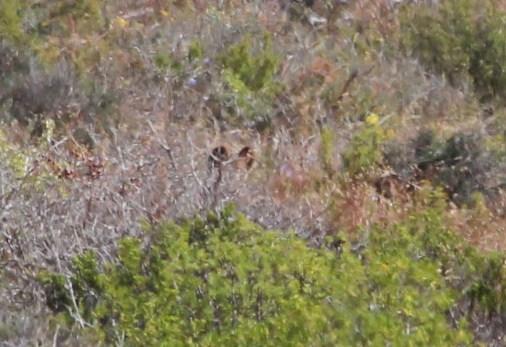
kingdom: Animalia
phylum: Chordata
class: Mammalia
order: Carnivora
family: Canidae
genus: Otocyon
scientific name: Otocyon megalotis
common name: Bat-eared fox
